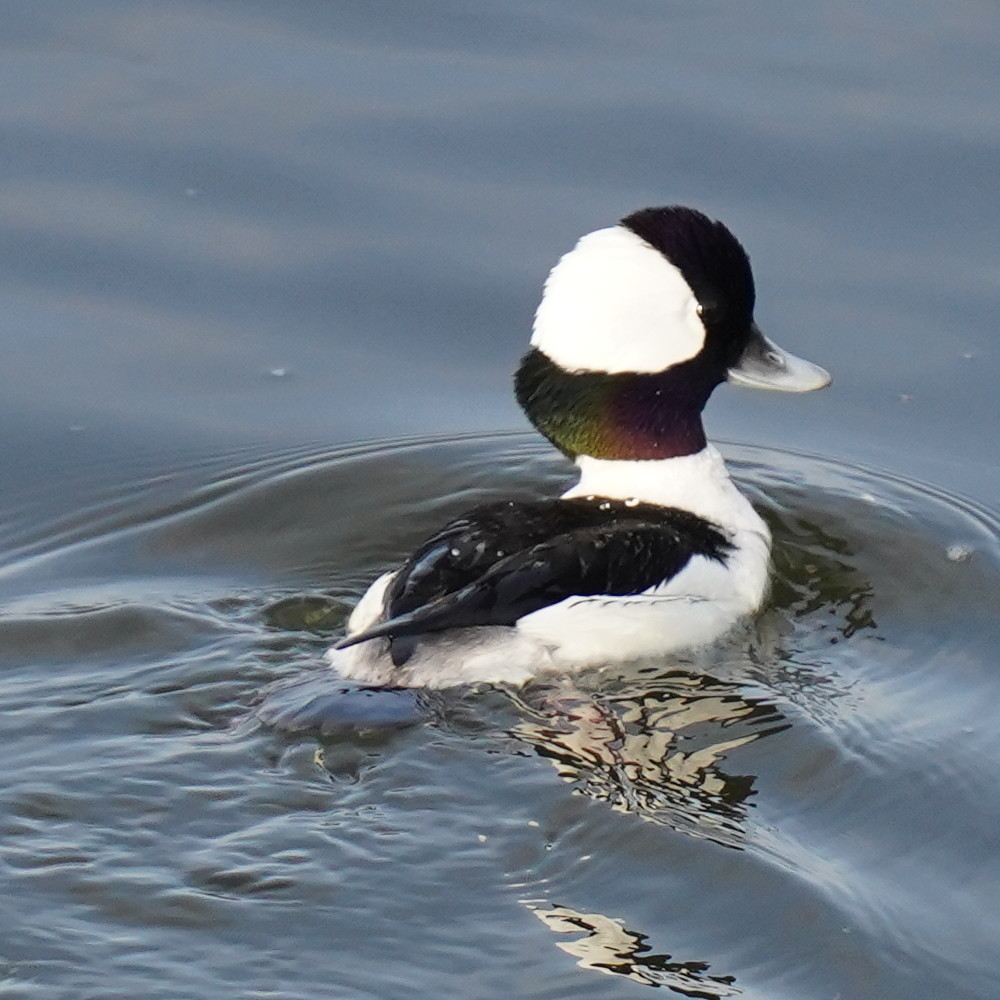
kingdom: Animalia
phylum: Chordata
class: Aves
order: Anseriformes
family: Anatidae
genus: Bucephala
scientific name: Bucephala albeola
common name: Bufflehead
